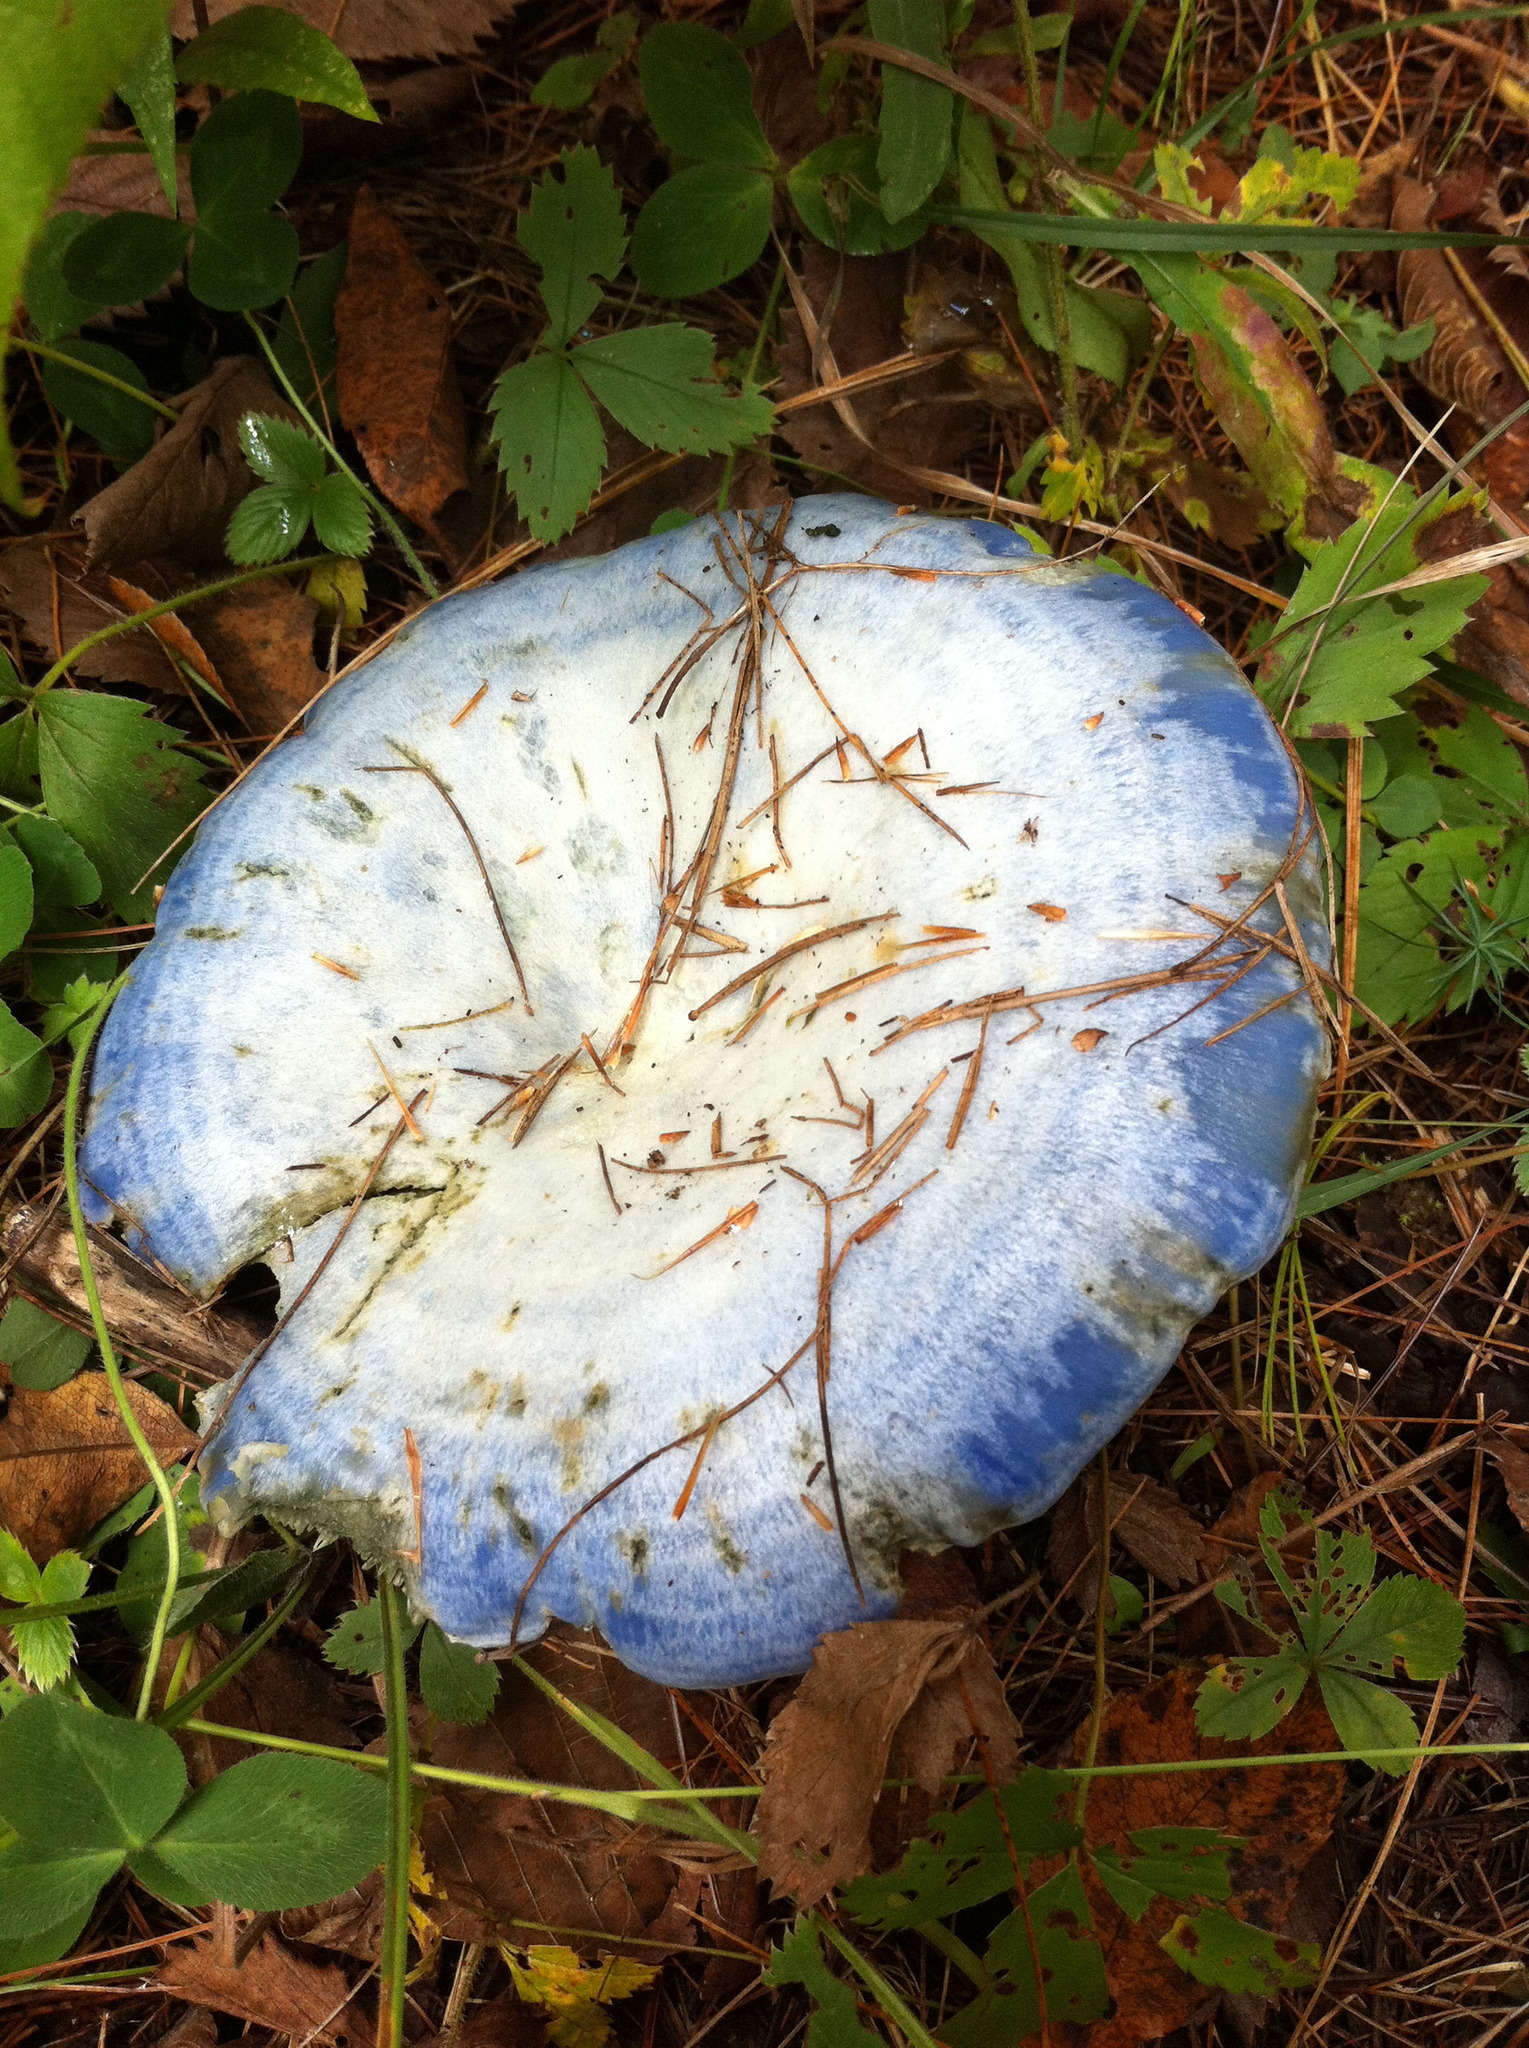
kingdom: Fungi
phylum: Basidiomycota
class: Agaricomycetes
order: Russulales
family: Russulaceae
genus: Lactarius
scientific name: Lactarius indigo
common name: Indigo milk cap
